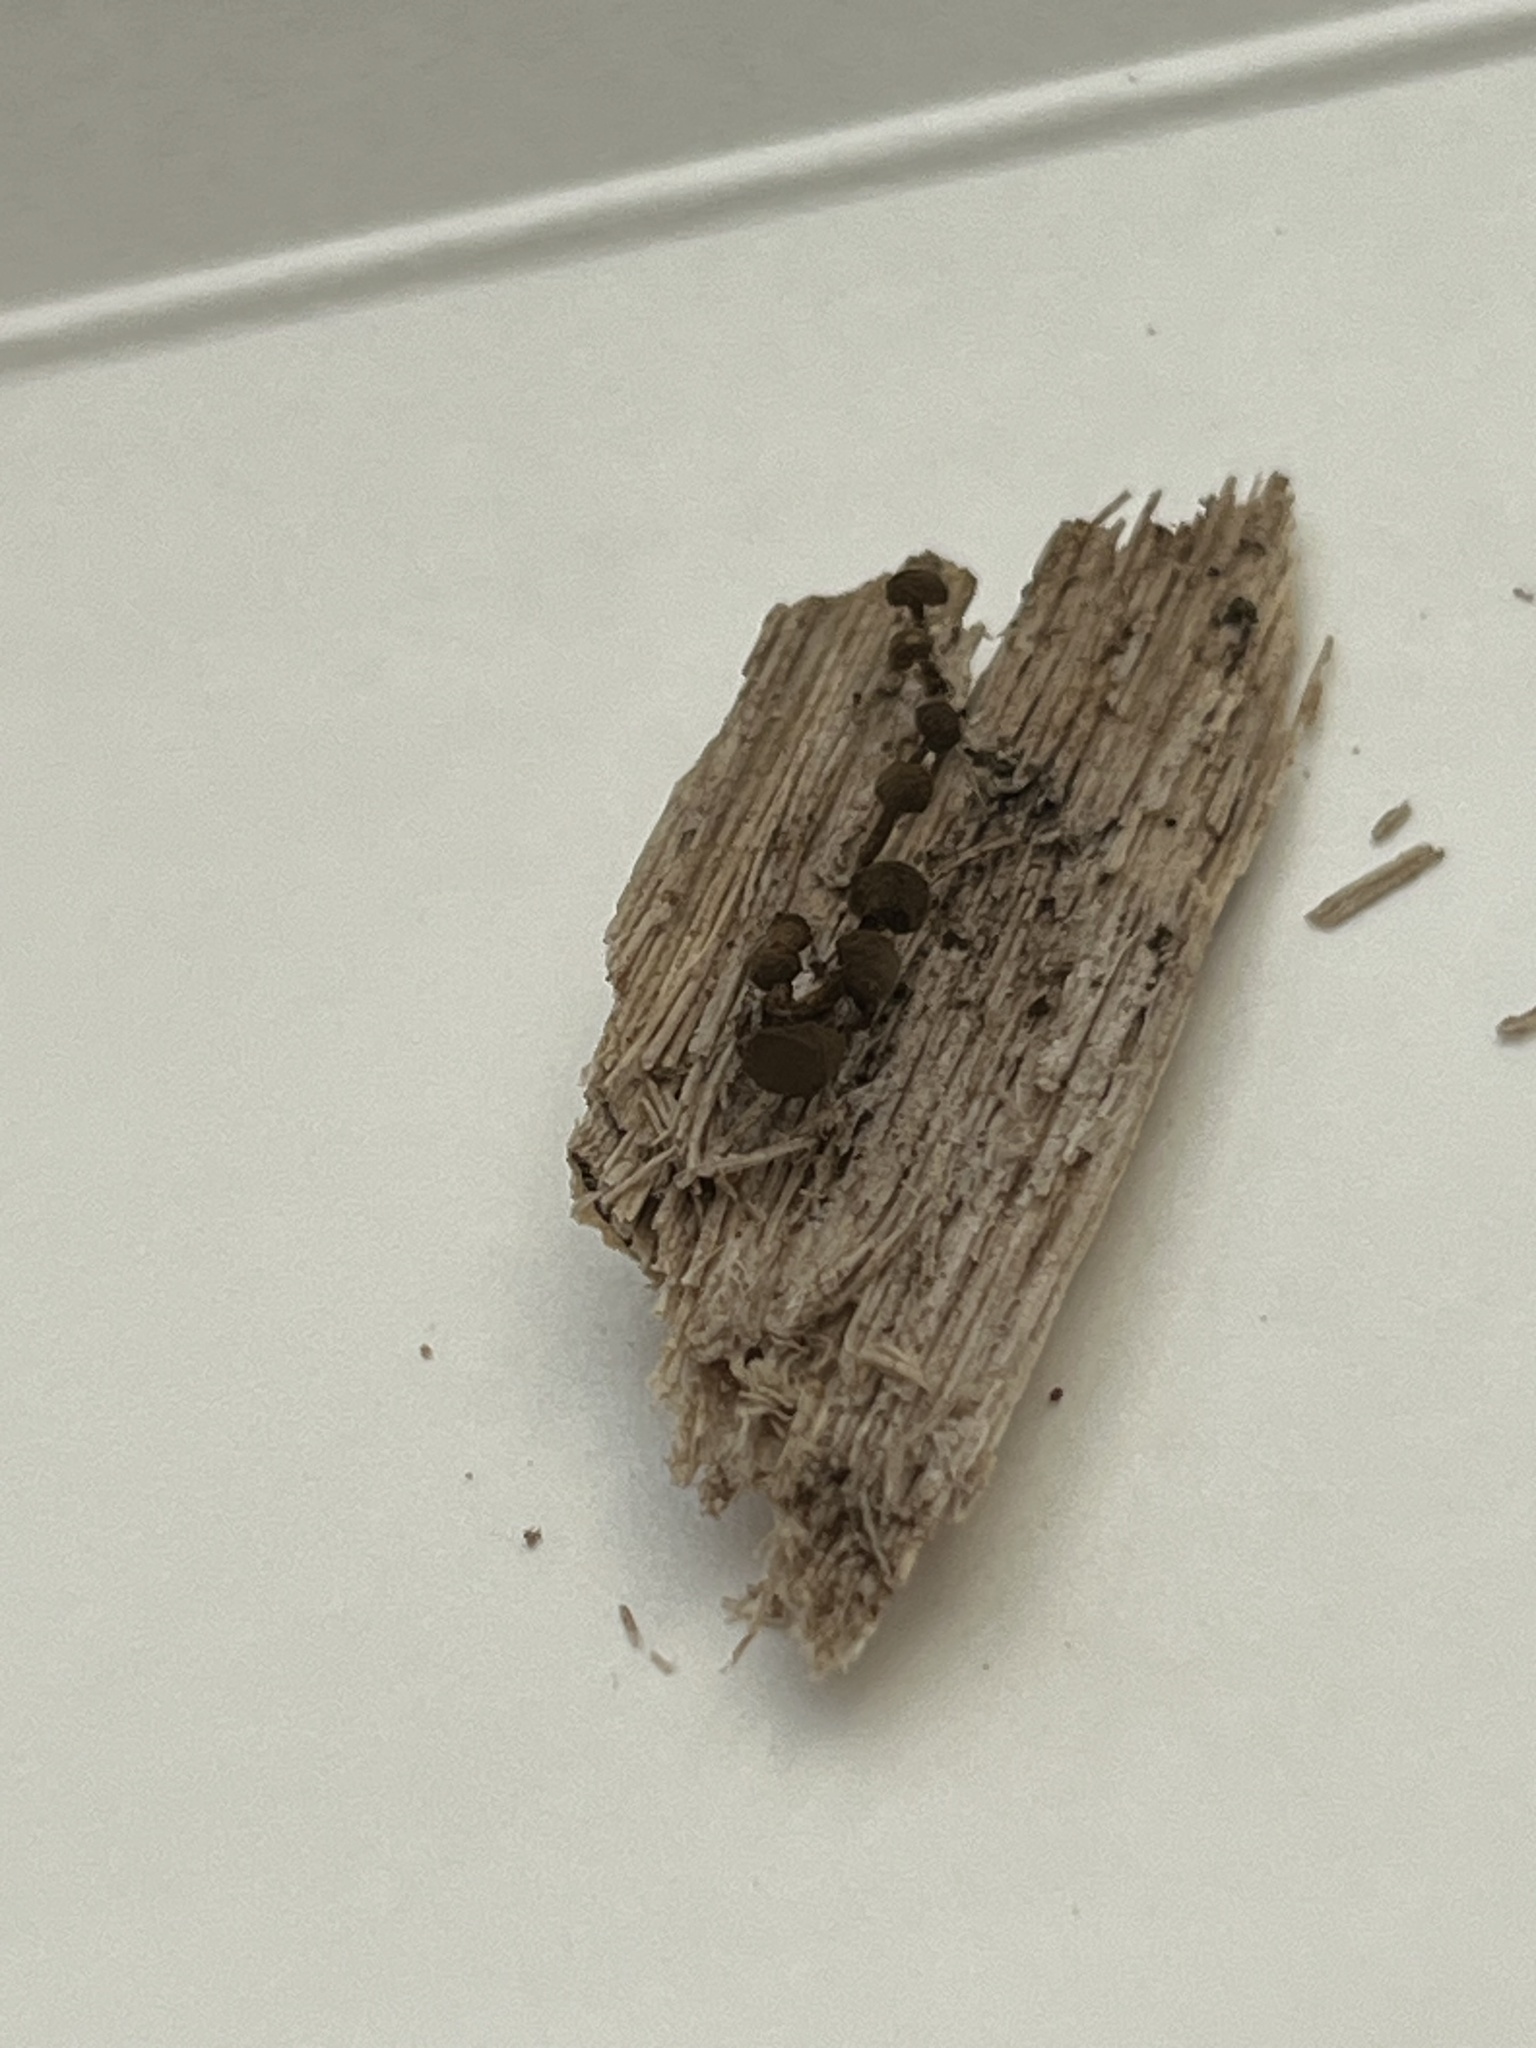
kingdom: Fungi
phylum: Basidiomycota
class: Atractiellomycetes
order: Atractiellales
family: Phleogenaceae
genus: Phleogena
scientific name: Phleogena faginea
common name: Fenugreek stalkball
